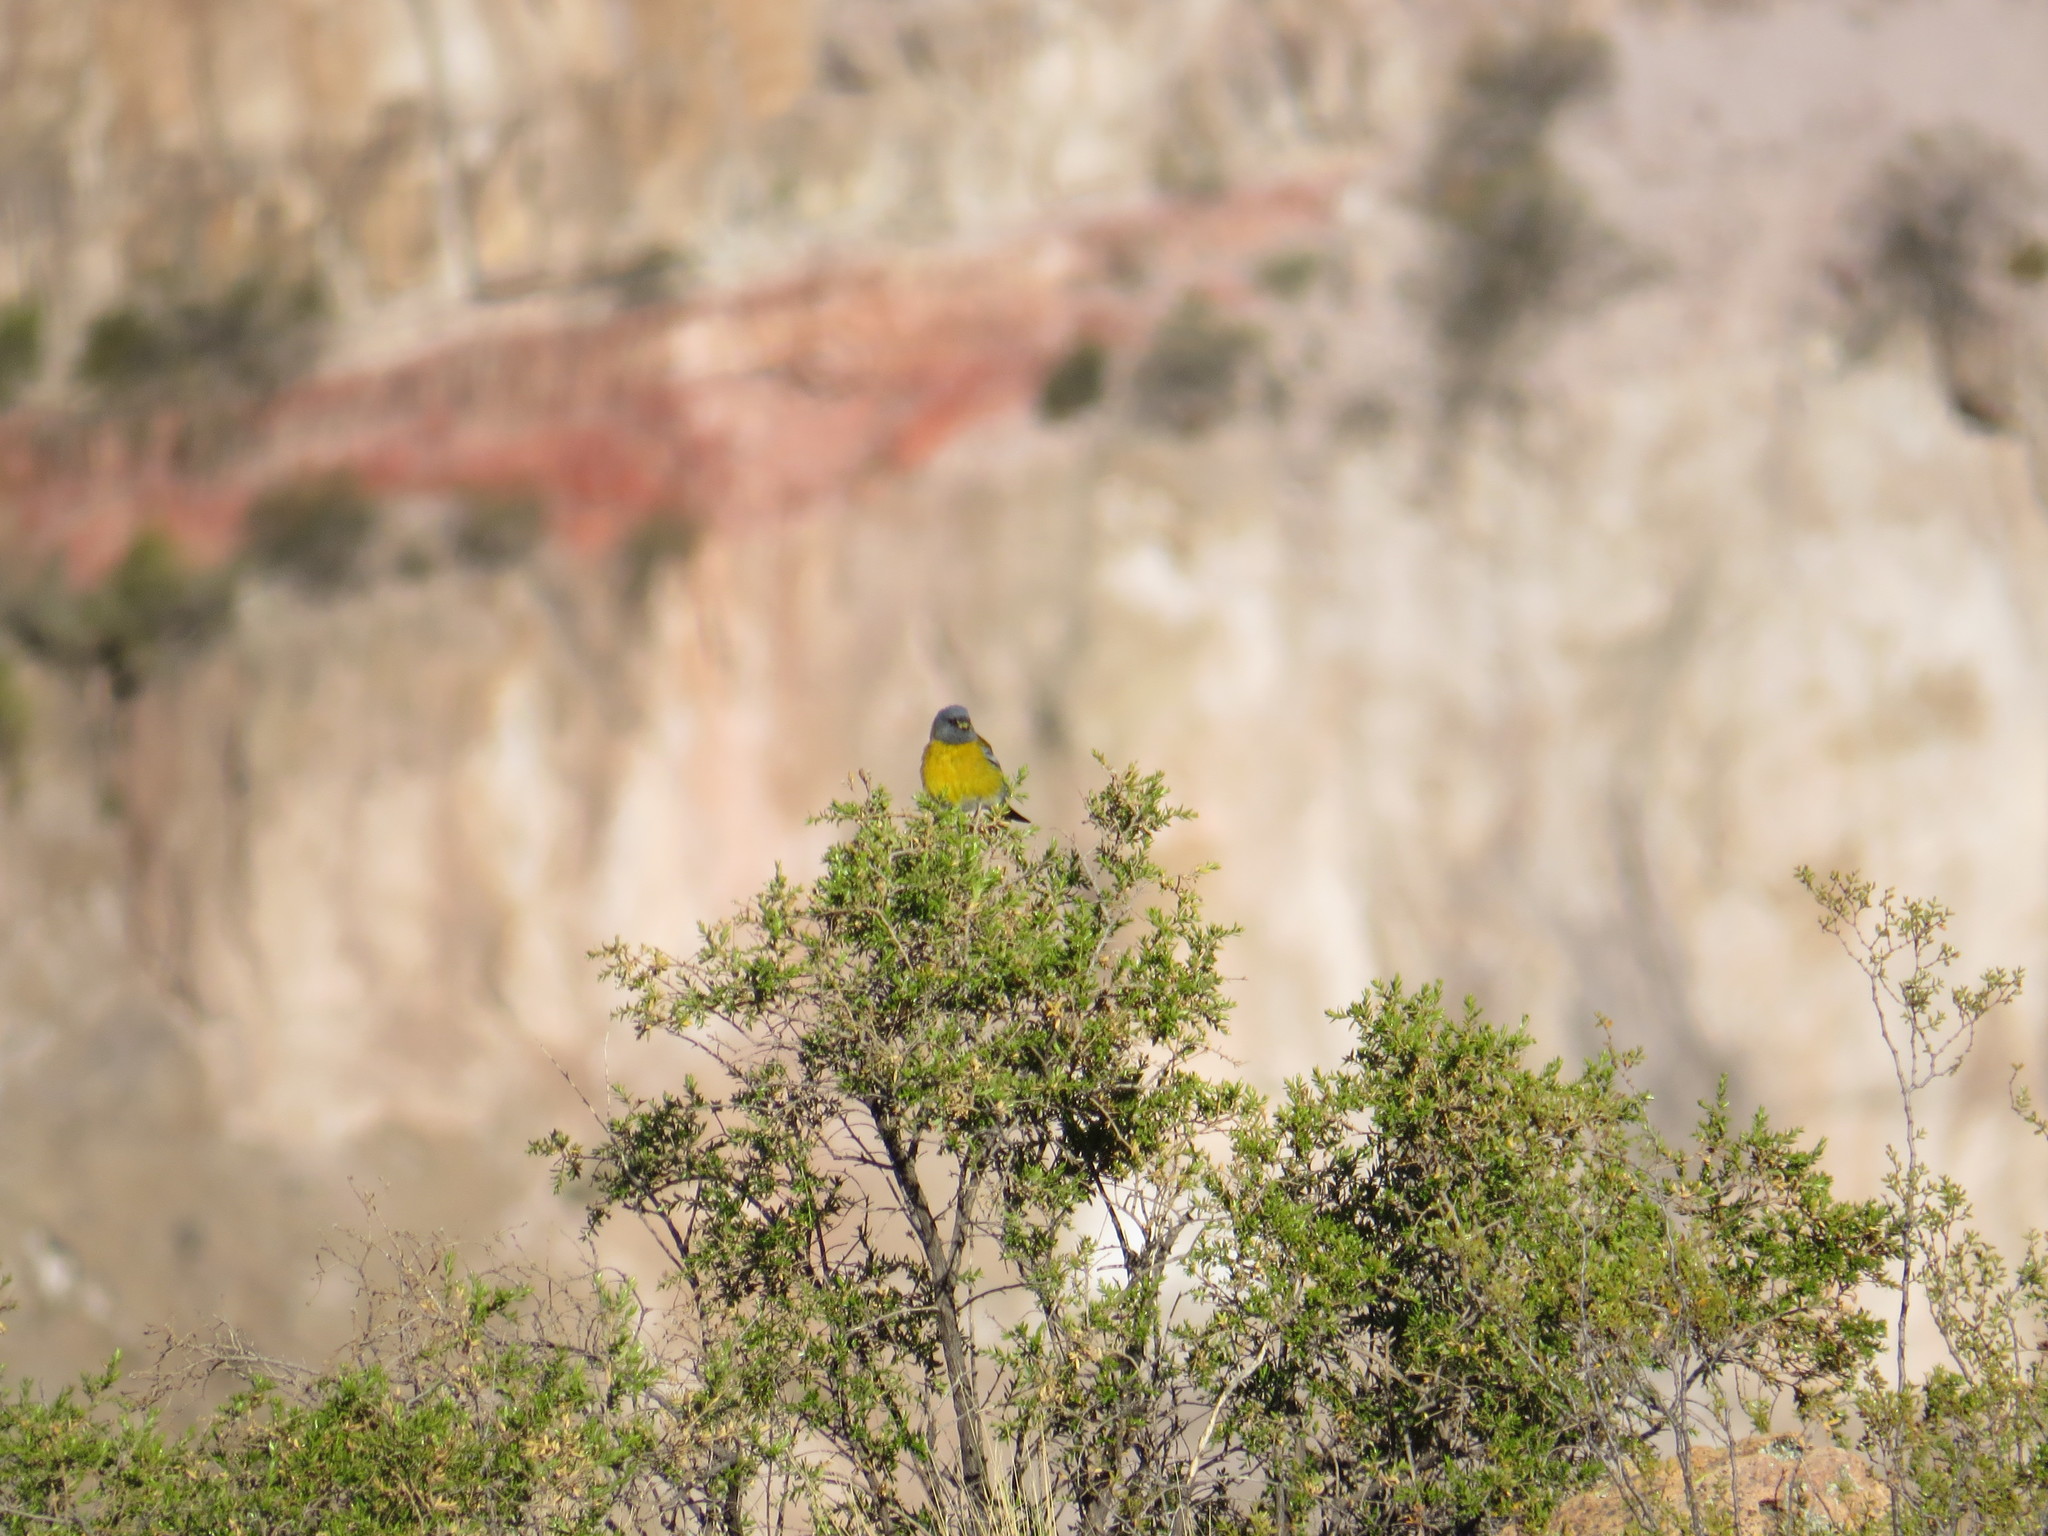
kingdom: Animalia
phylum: Chordata
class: Aves
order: Passeriformes
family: Thraupidae
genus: Phrygilus
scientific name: Phrygilus gayi
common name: Grey-hooded sierra finch
